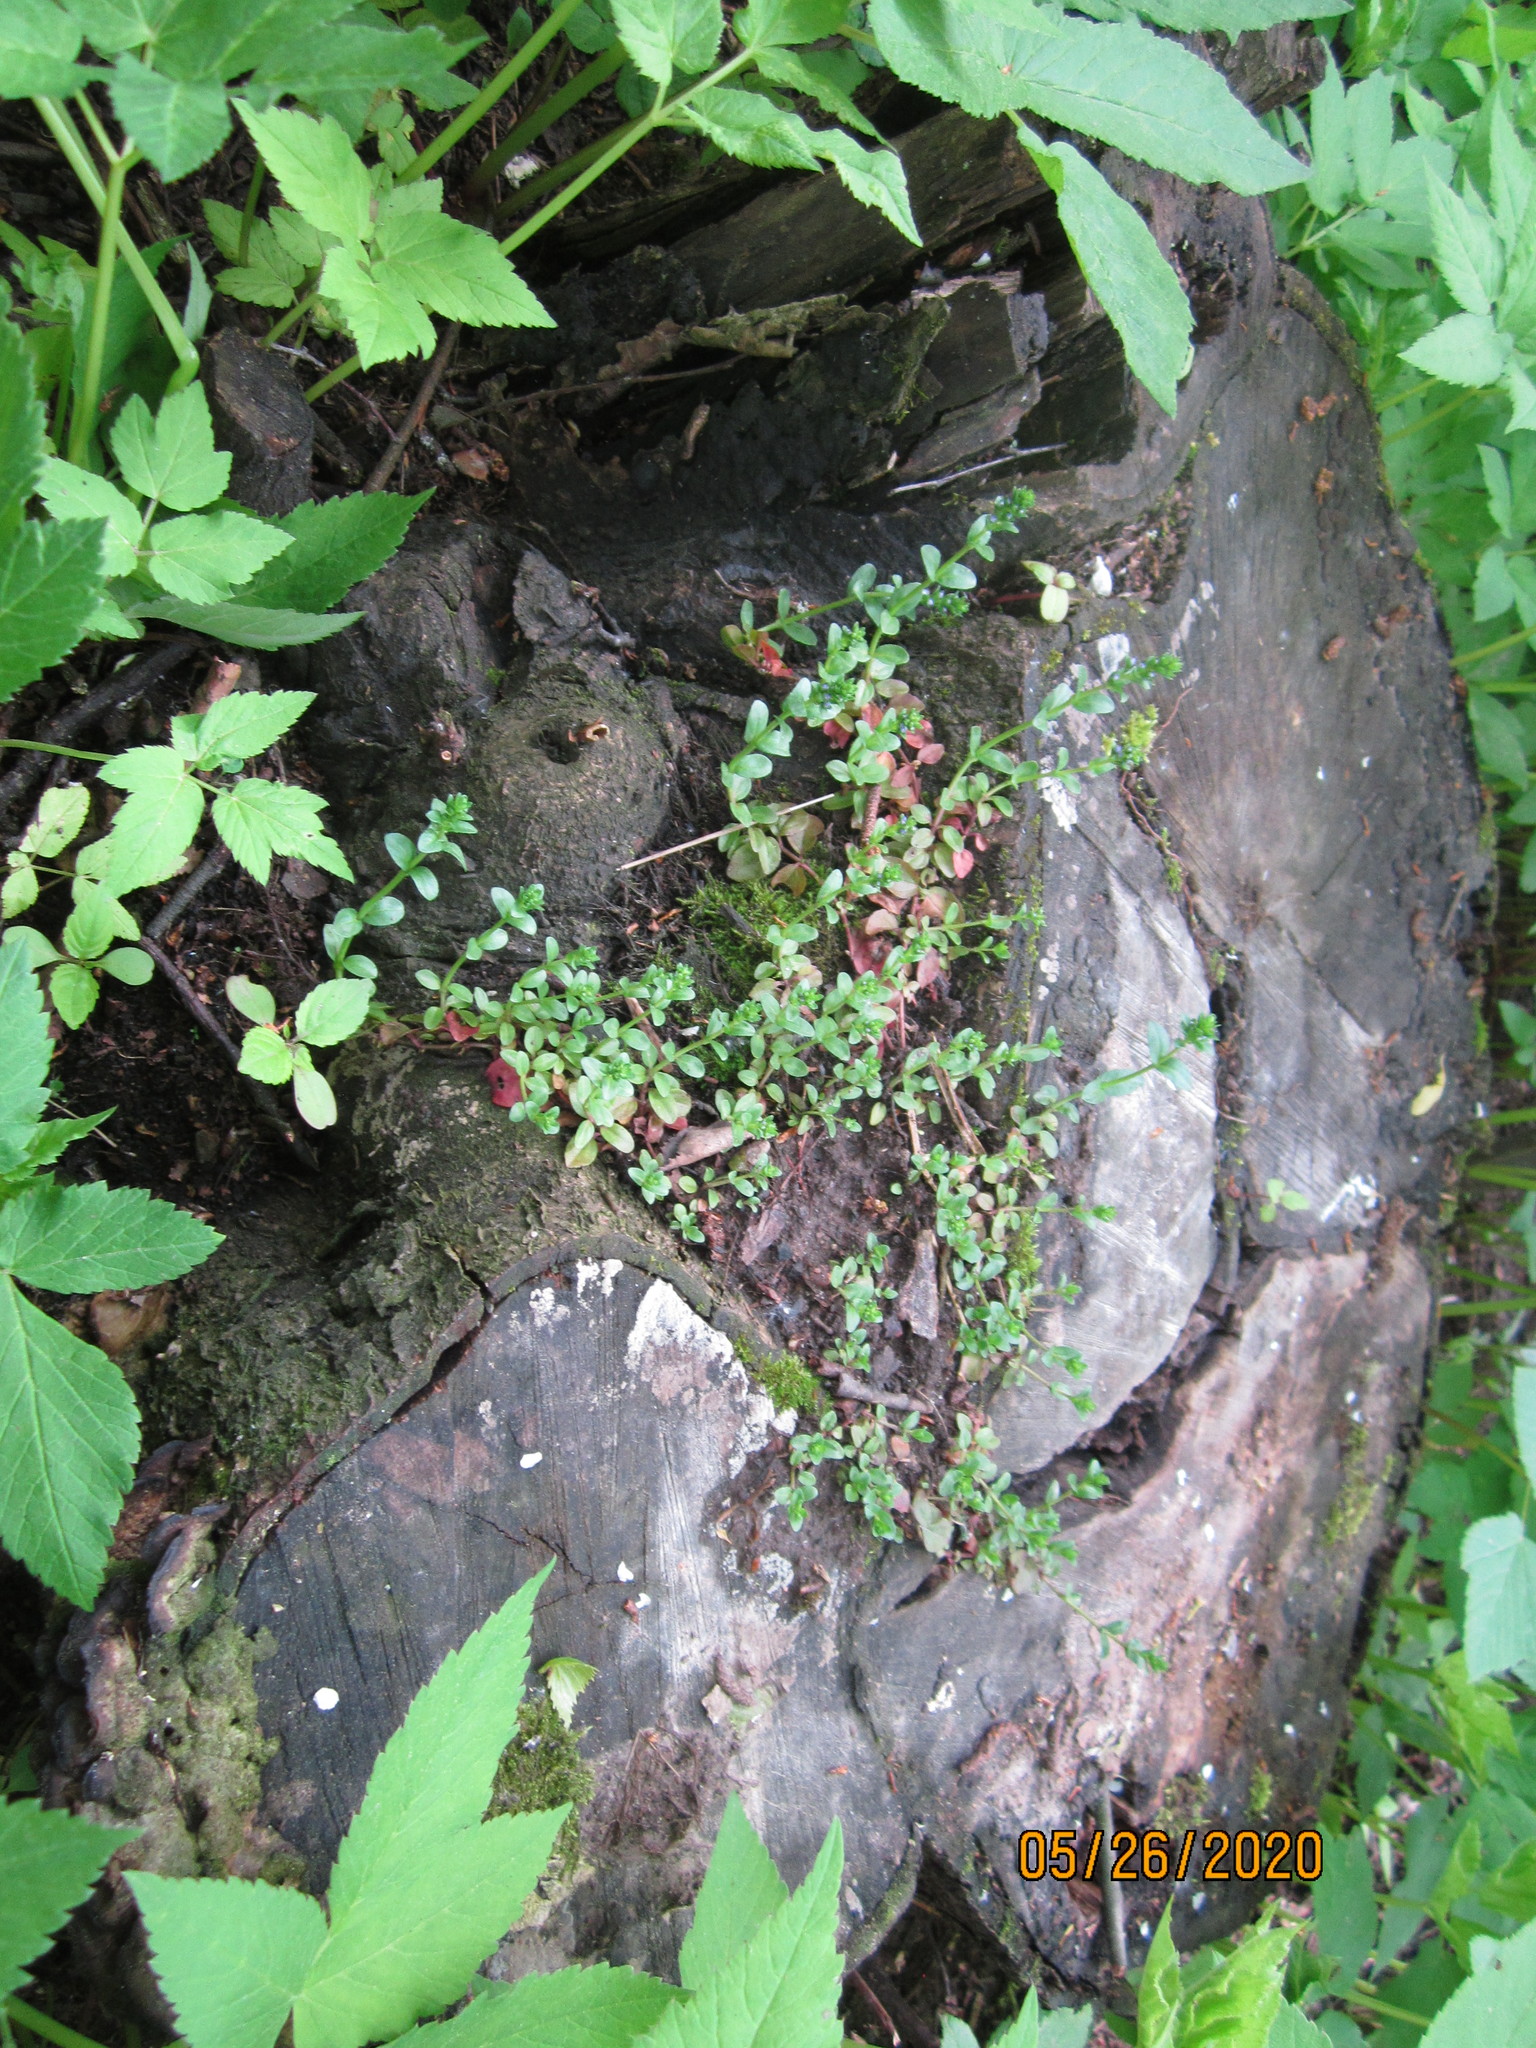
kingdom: Plantae
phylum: Tracheophyta
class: Magnoliopsida
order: Lamiales
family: Plantaginaceae
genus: Veronica
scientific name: Veronica serpyllifolia
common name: Thyme-leaved speedwell
